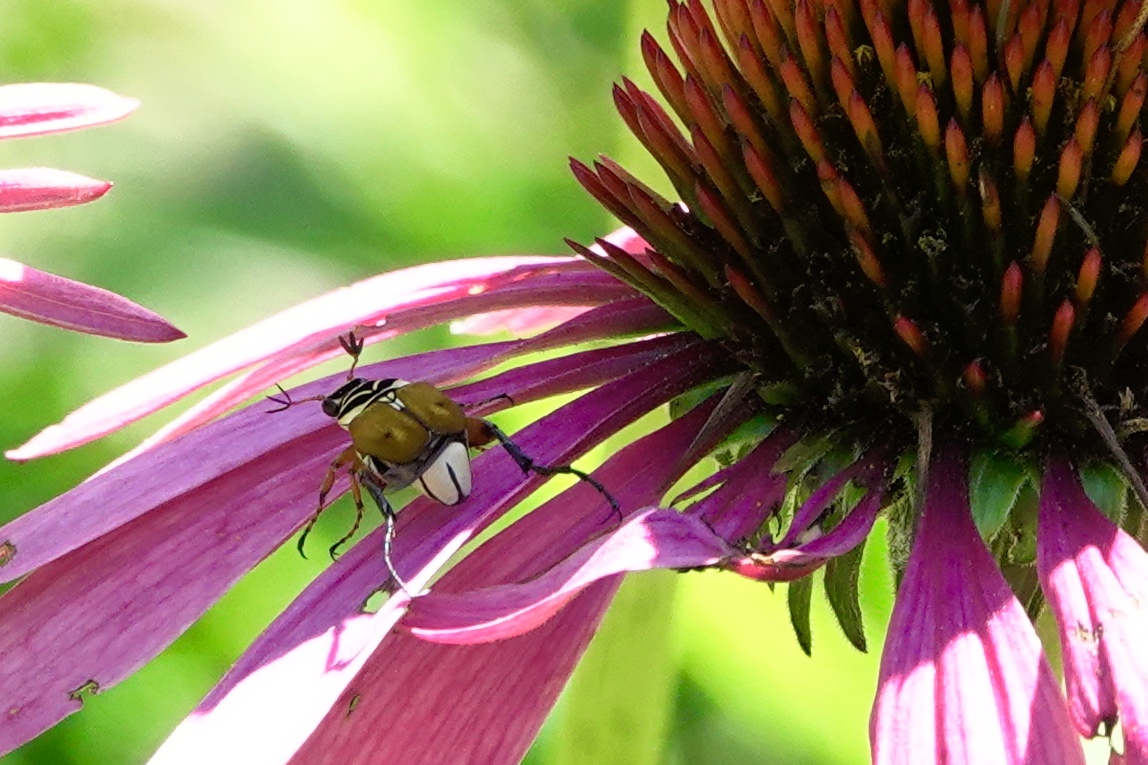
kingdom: Animalia
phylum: Arthropoda
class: Insecta
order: Coleoptera
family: Scarabaeidae
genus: Trigonopeltastes
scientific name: Trigonopeltastes delta
